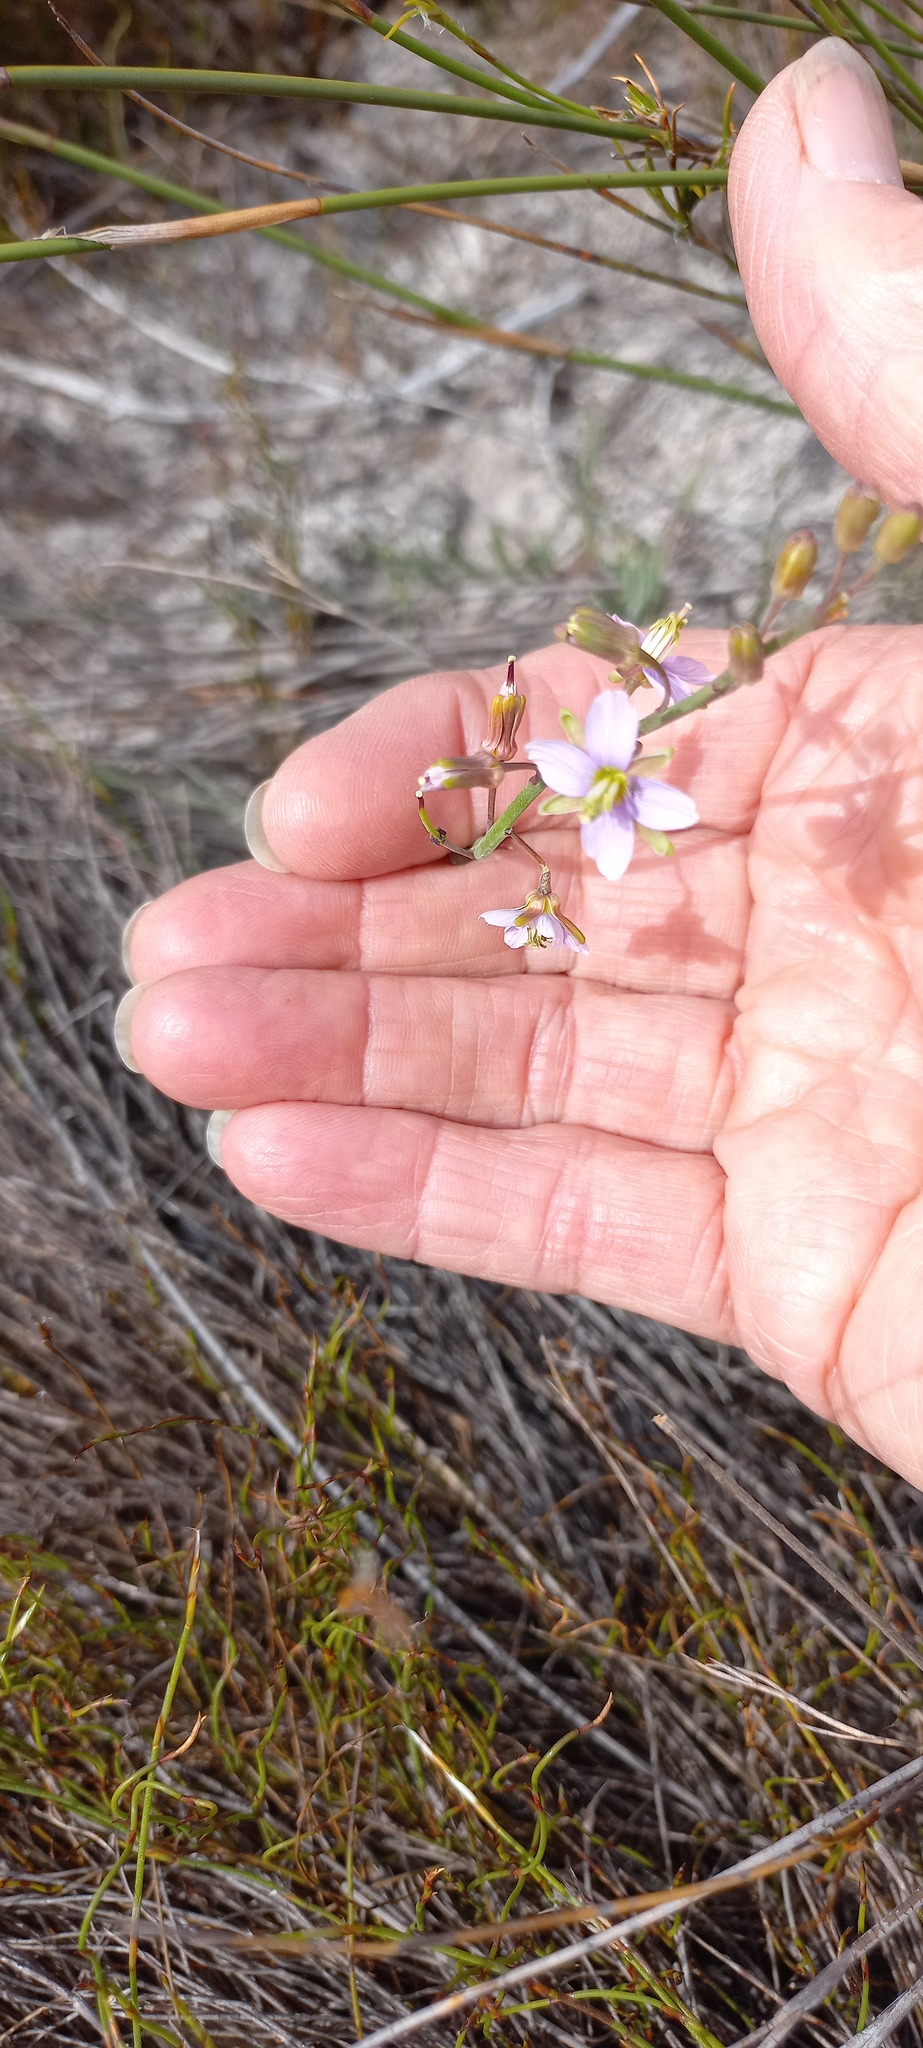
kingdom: Plantae
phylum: Tracheophyta
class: Magnoliopsida
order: Brassicales
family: Brassicaceae
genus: Heliophila
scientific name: Heliophila linearis
